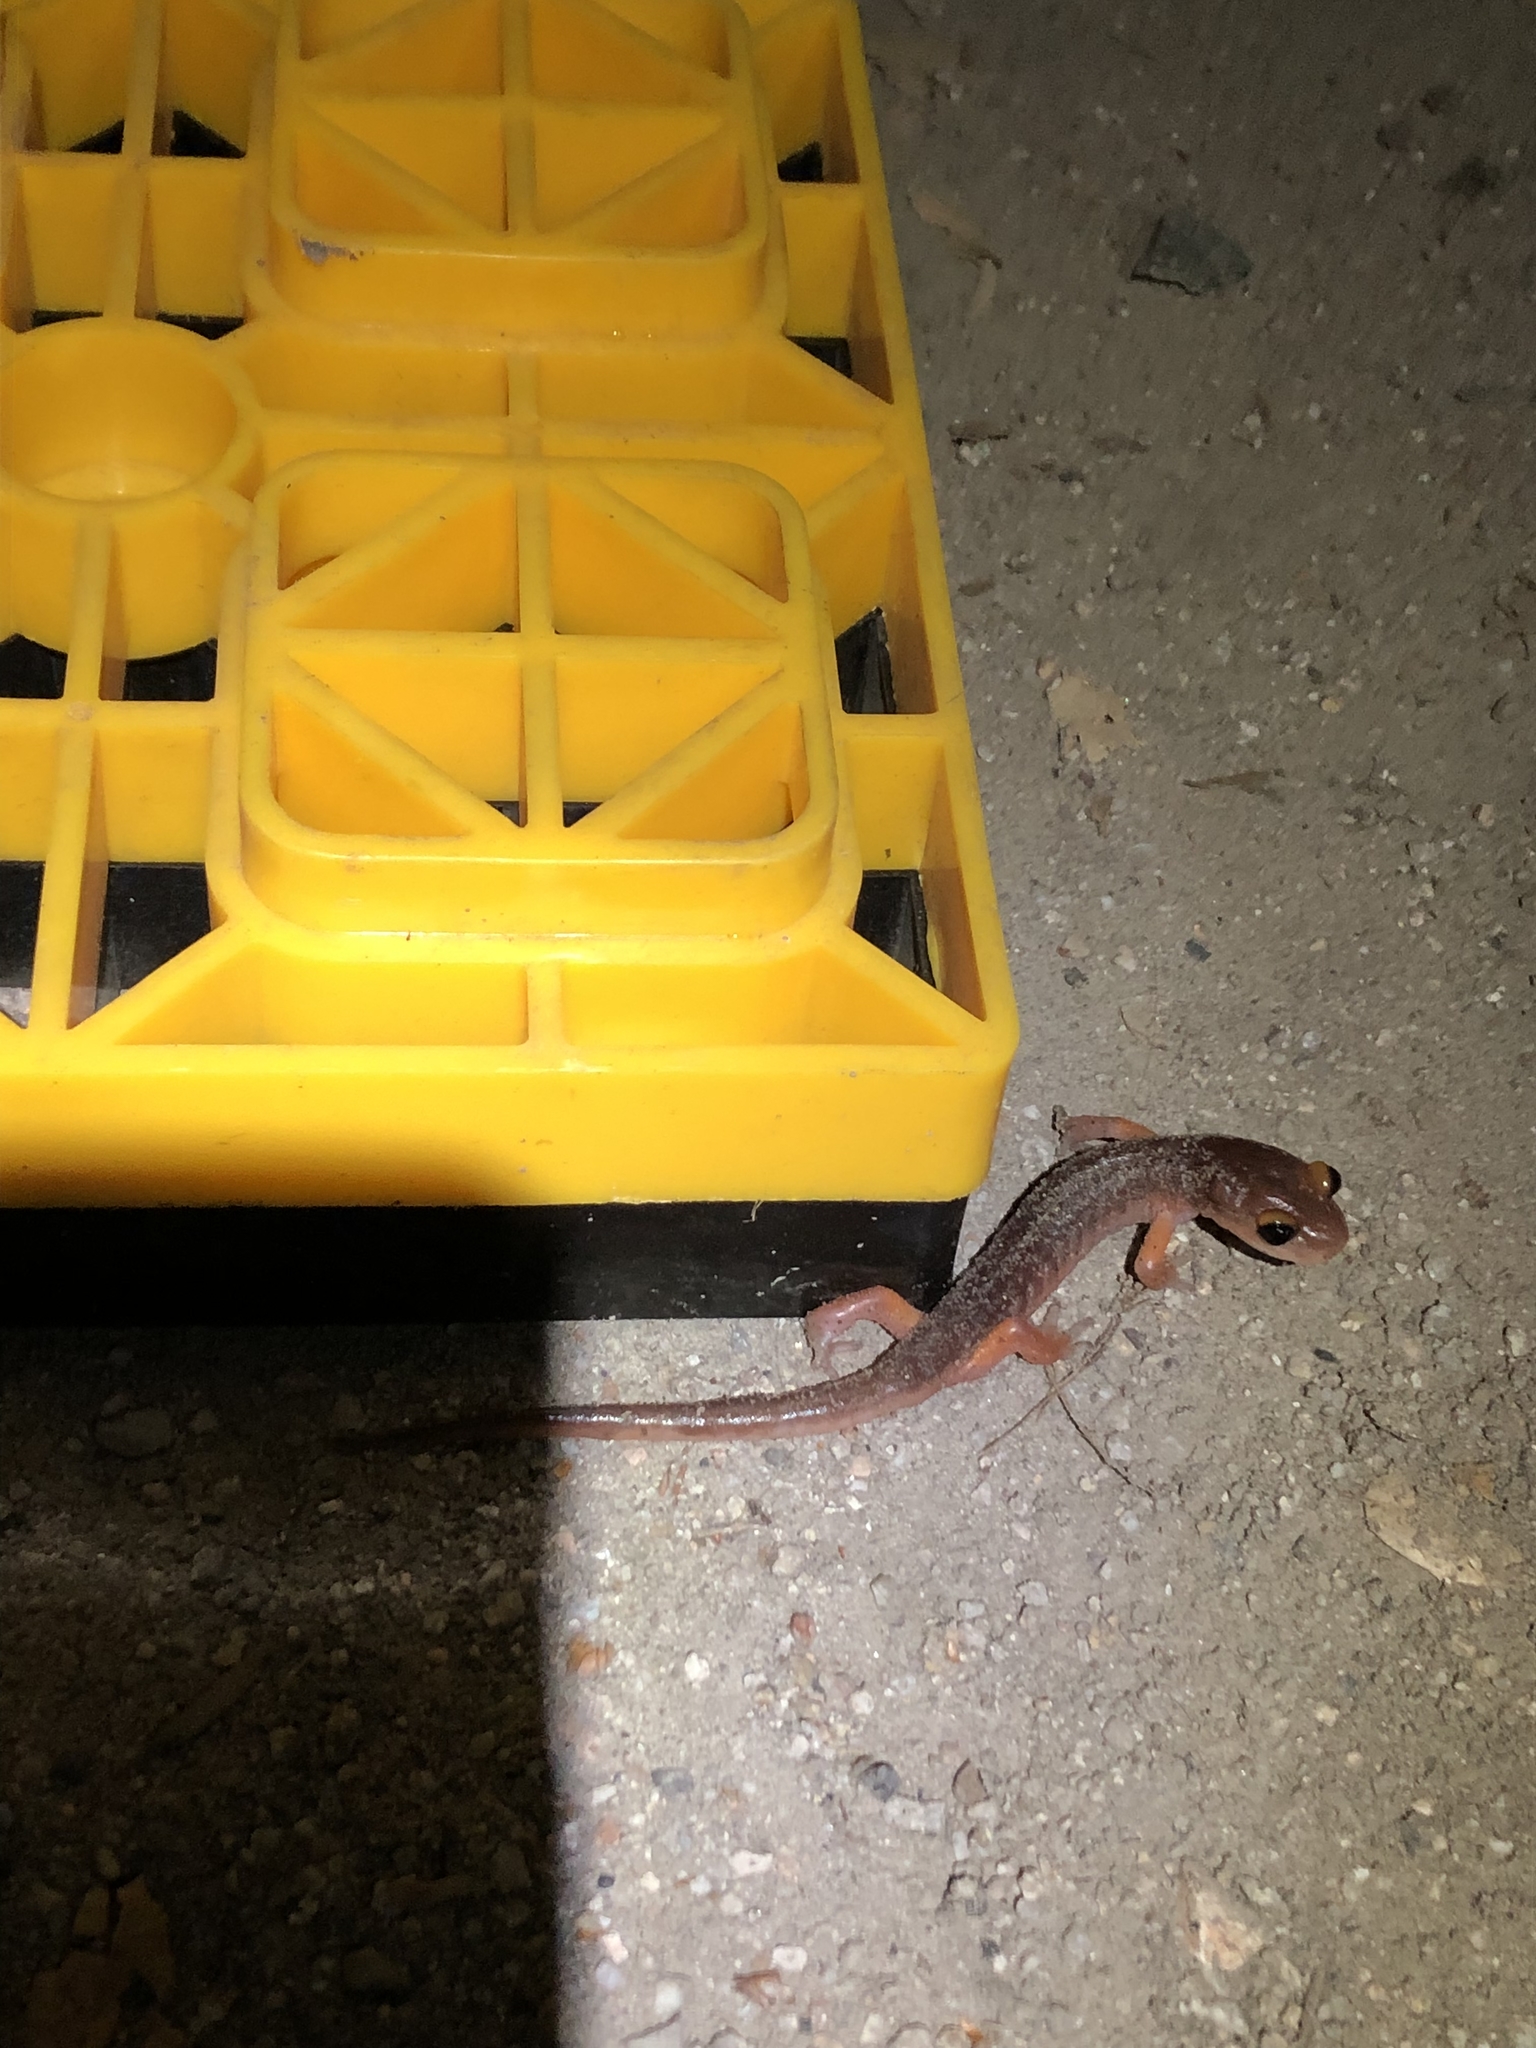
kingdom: Animalia
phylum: Chordata
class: Amphibia
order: Caudata
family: Plethodontidae
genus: Ensatina
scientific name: Ensatina eschscholtzii
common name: Ensatina
